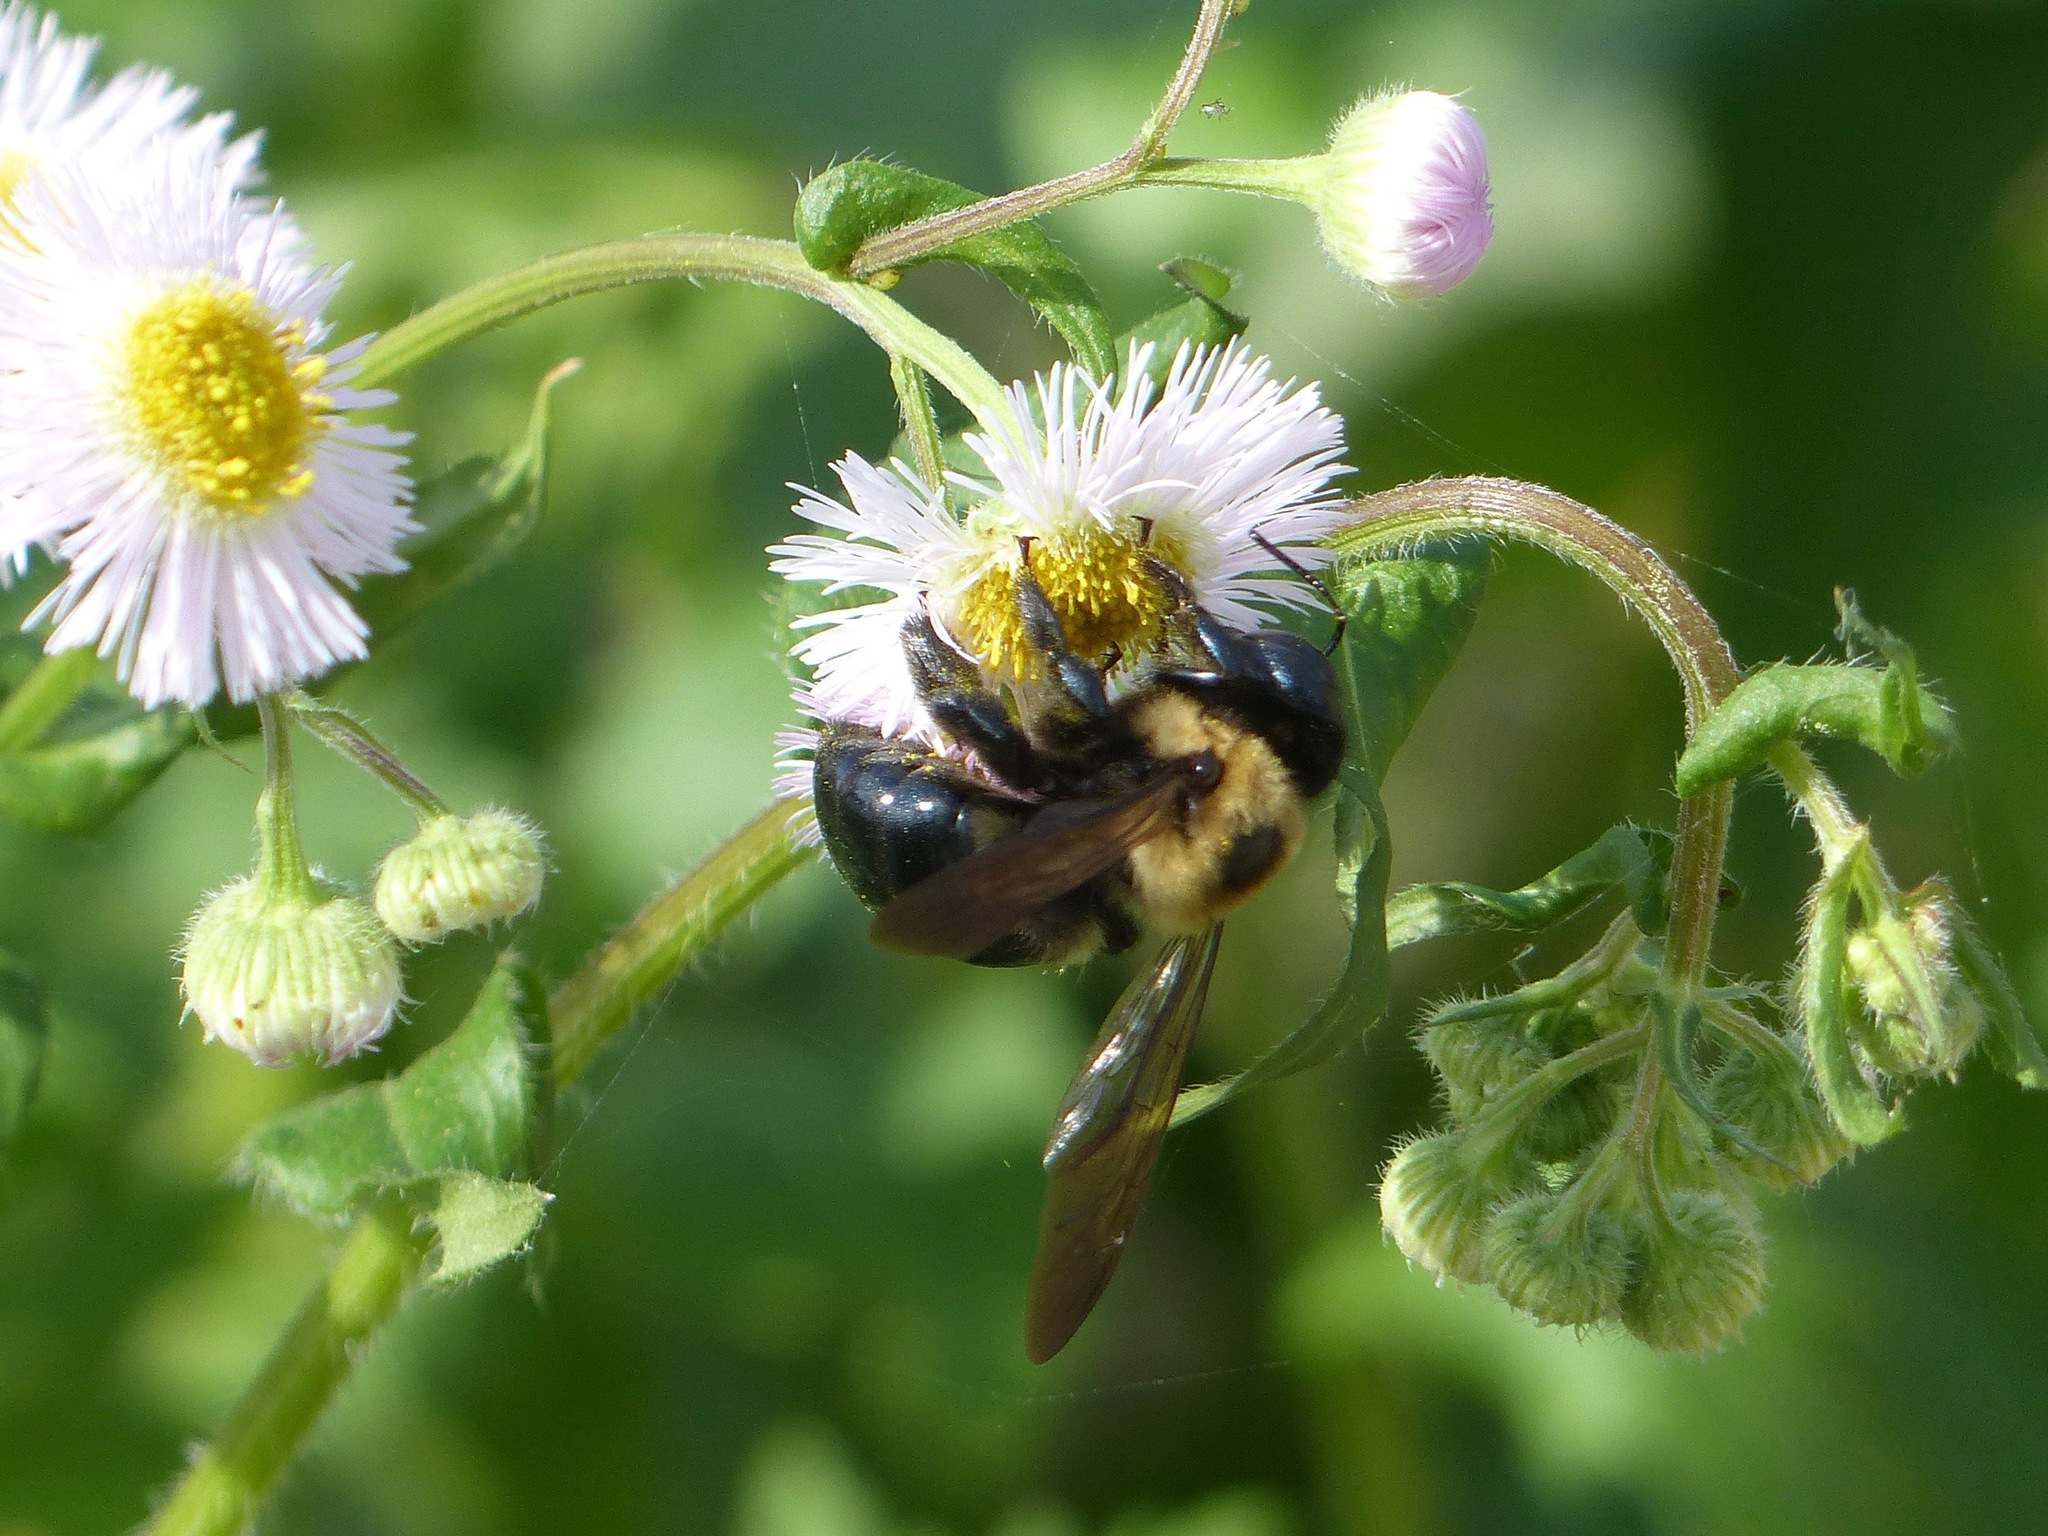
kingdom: Animalia
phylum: Arthropoda
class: Insecta
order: Hymenoptera
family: Apidae
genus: Xylocopa
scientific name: Xylocopa virginica
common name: Carpenter bee
